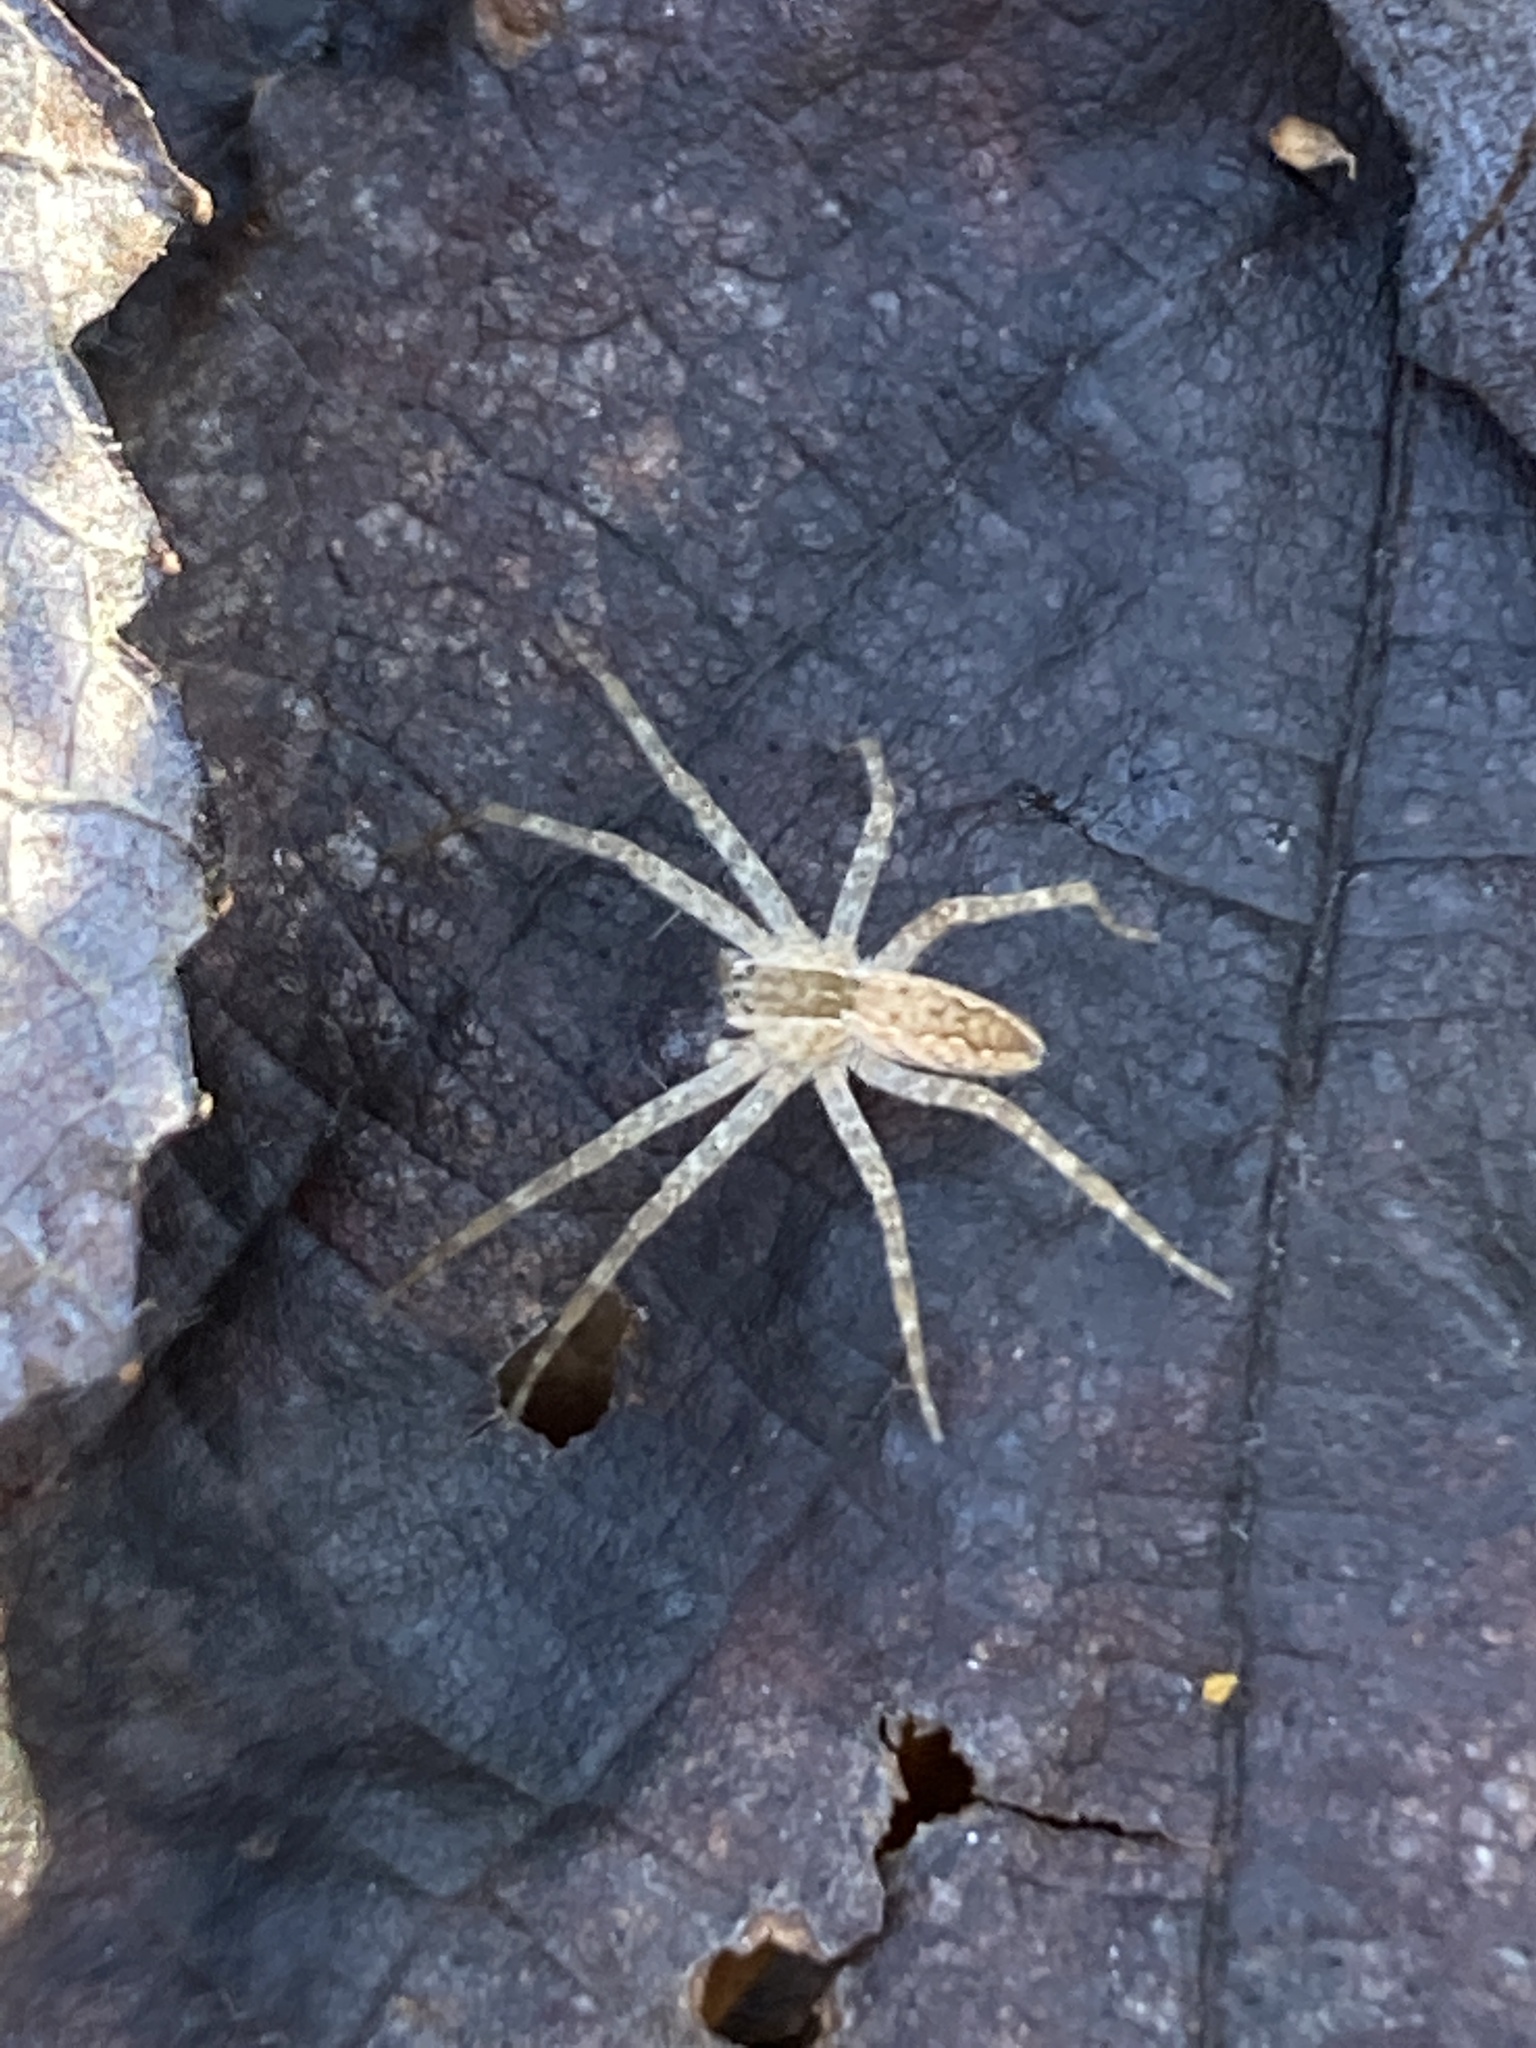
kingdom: Animalia
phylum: Arthropoda
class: Arachnida
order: Araneae
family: Pisauridae
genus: Pisaurina
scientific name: Pisaurina mira
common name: American nursery web spider
